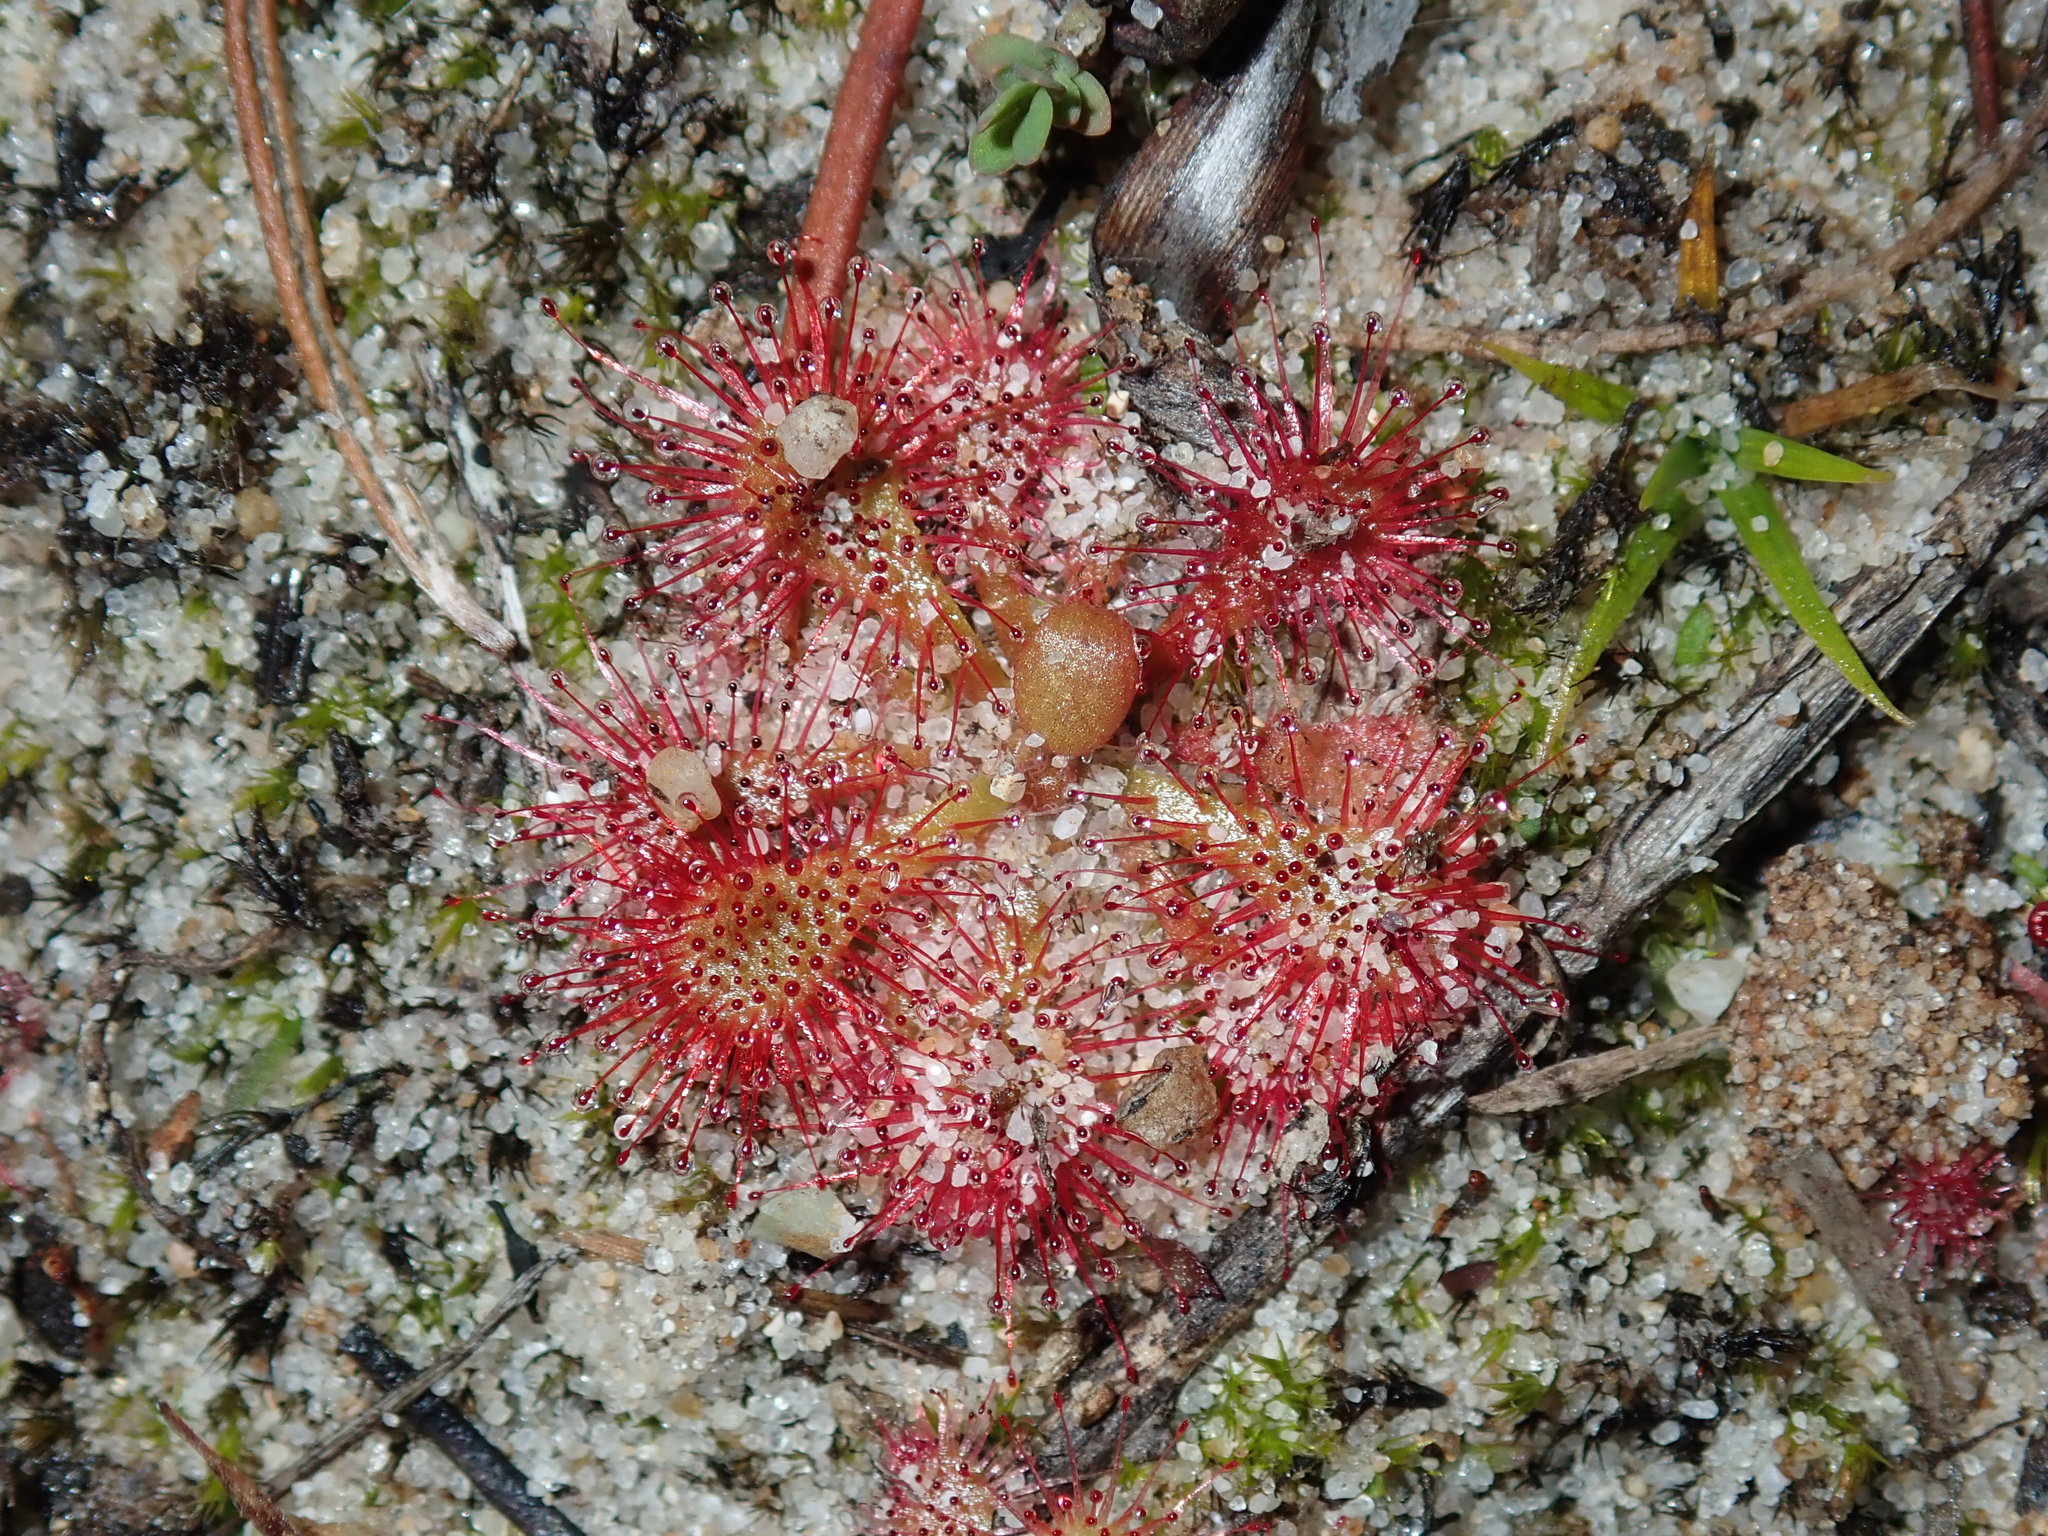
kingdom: Plantae
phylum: Tracheophyta
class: Magnoliopsida
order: Caryophyllales
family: Droseraceae
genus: Drosera
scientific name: Drosera spatulata
